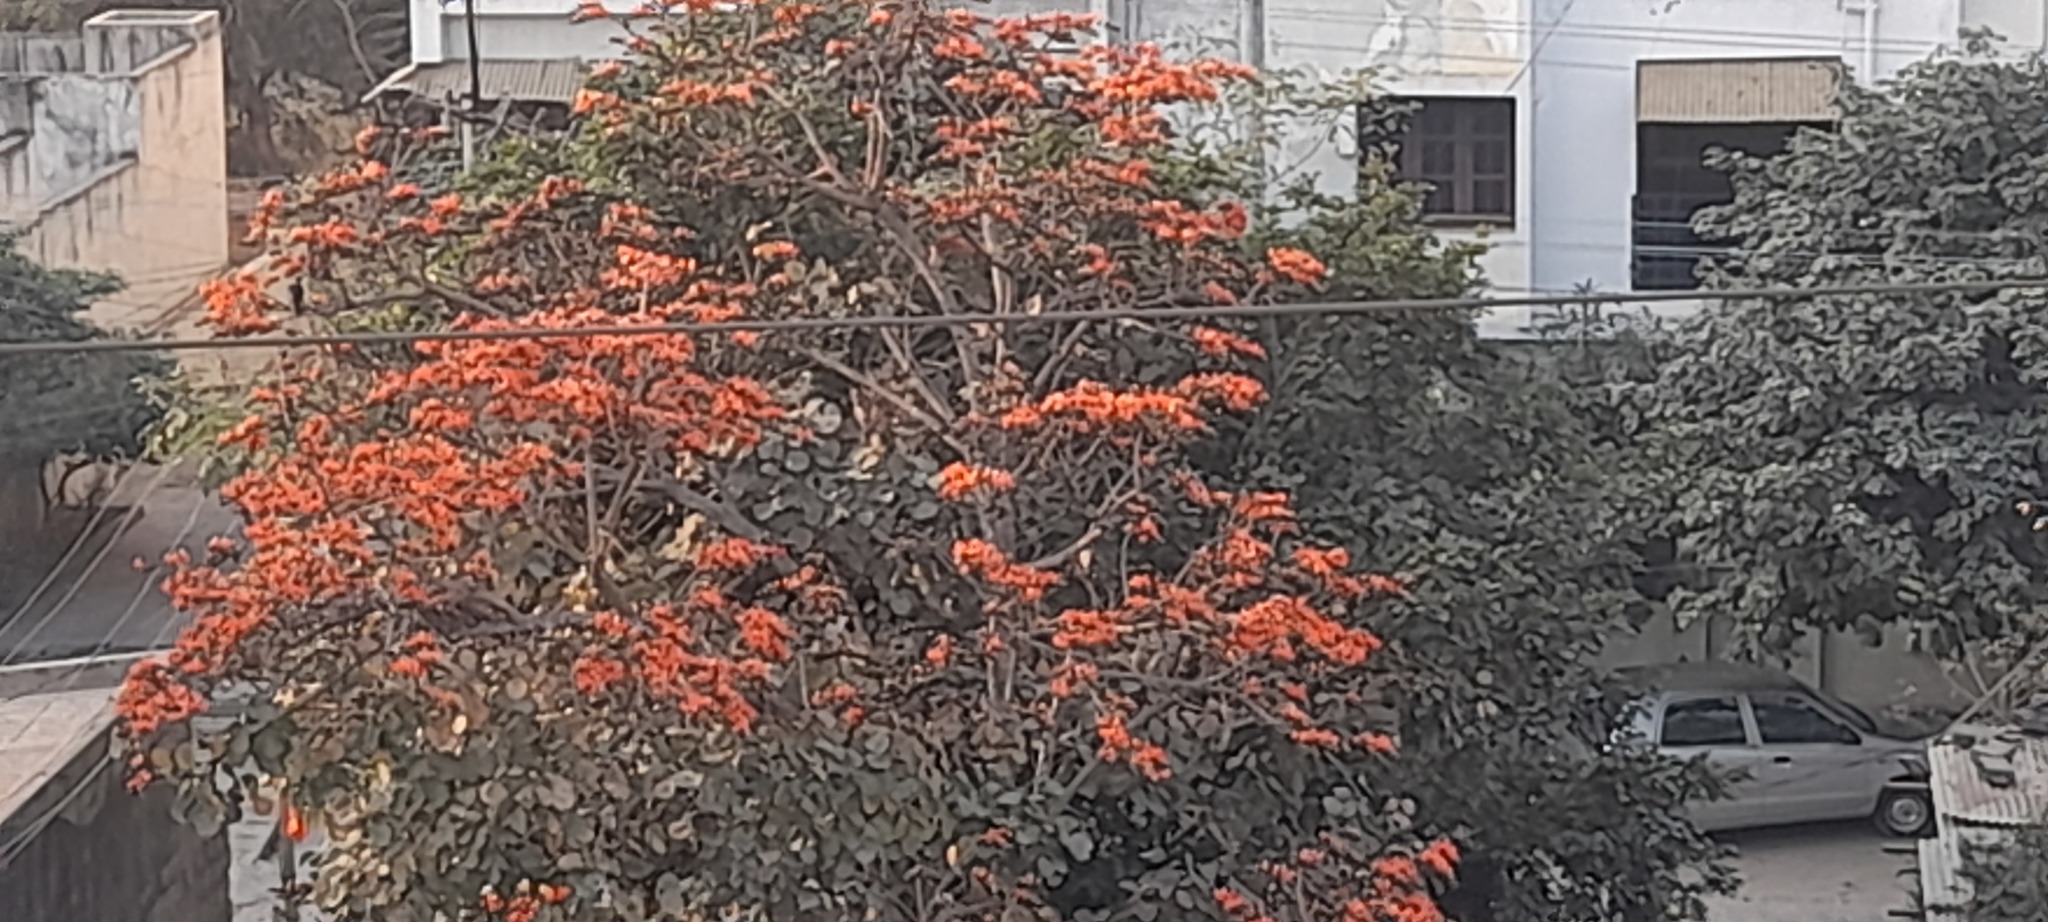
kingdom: Plantae
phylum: Tracheophyta
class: Magnoliopsida
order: Fabales
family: Fabaceae
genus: Butea
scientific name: Butea monosperma
